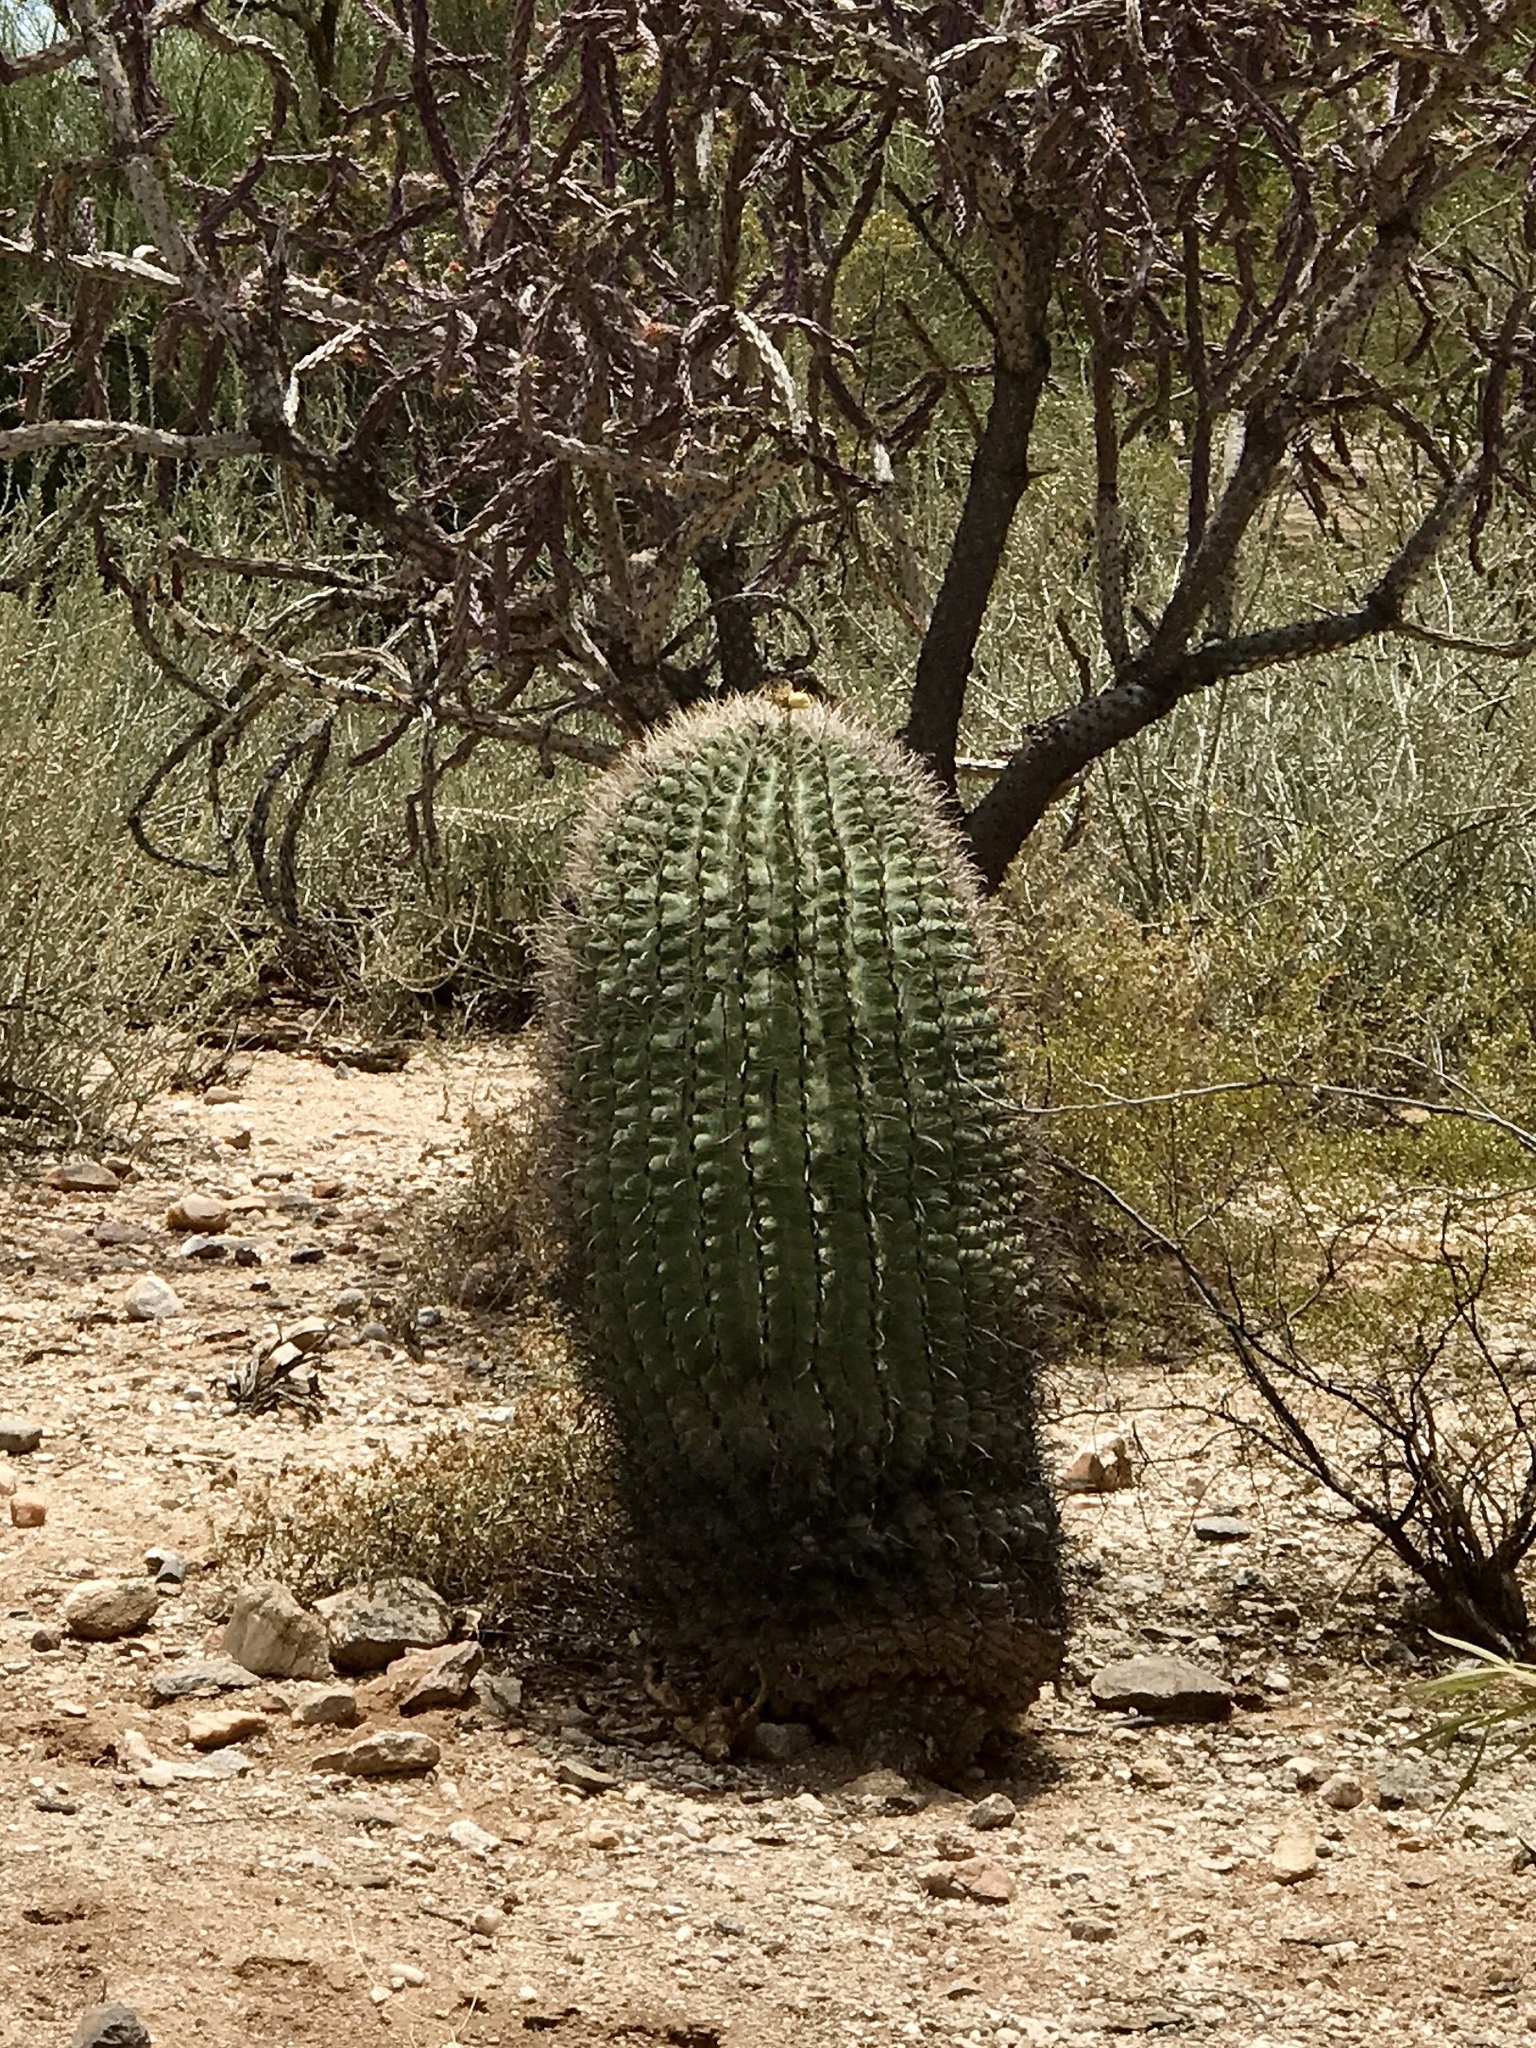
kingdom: Plantae
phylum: Tracheophyta
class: Magnoliopsida
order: Caryophyllales
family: Cactaceae
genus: Ferocactus
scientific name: Ferocactus wislizeni
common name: Candy barrel cactus
